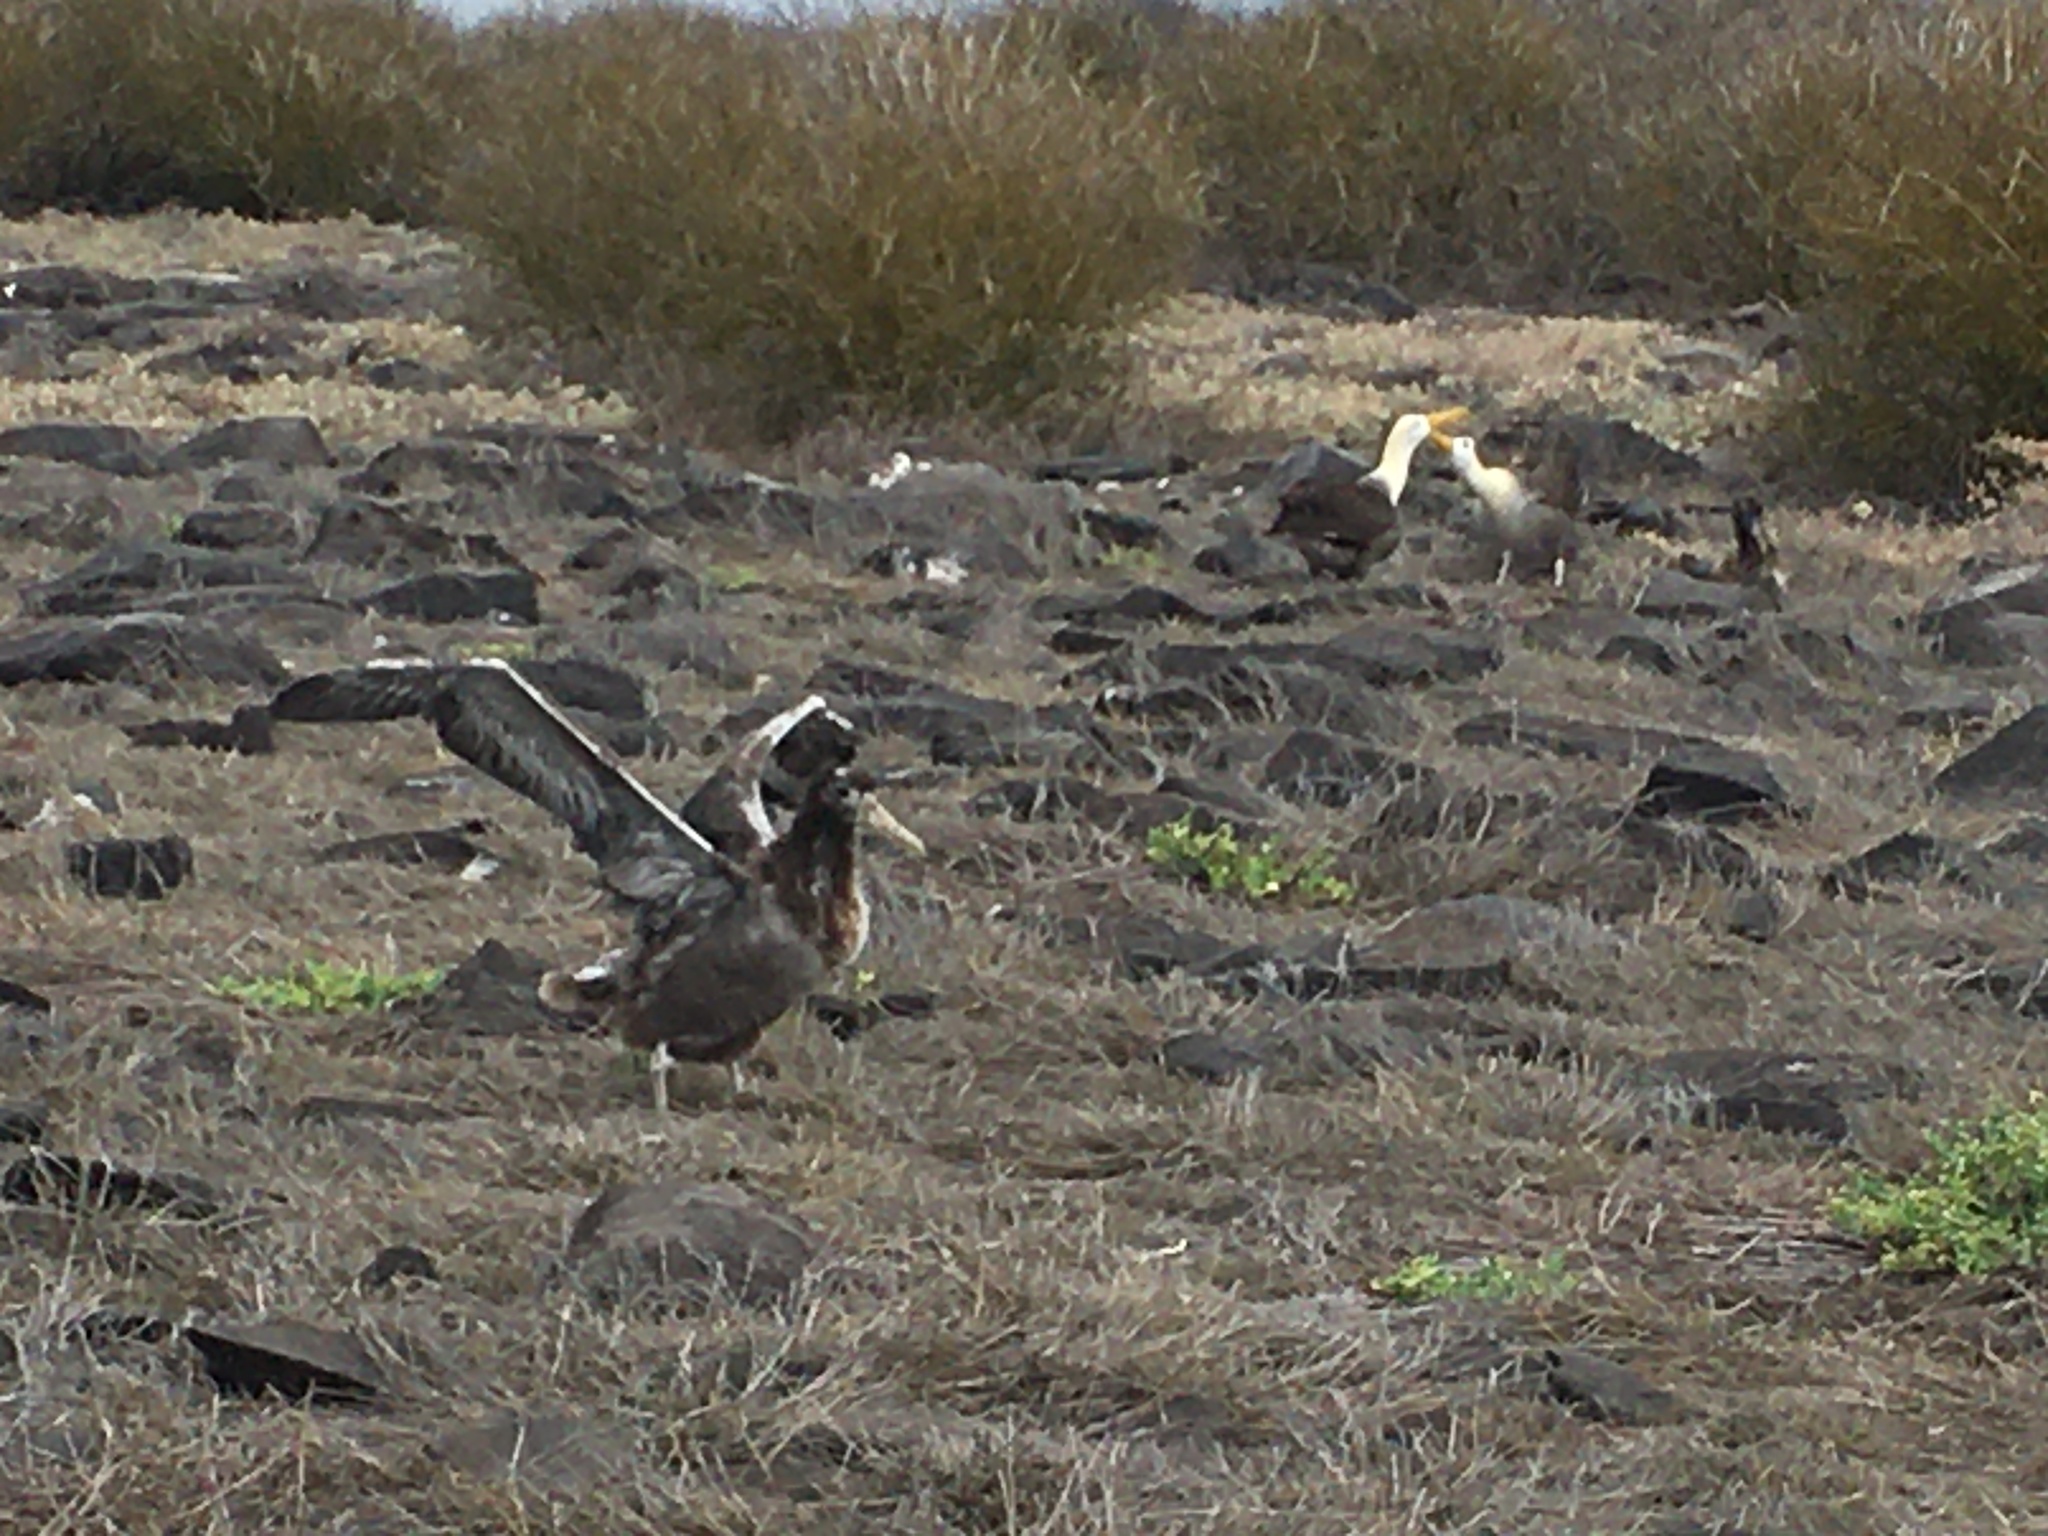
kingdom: Animalia
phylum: Chordata
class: Aves
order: Procellariiformes
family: Diomedeidae
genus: Phoebastria
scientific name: Phoebastria irrorata
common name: Waved albatross
